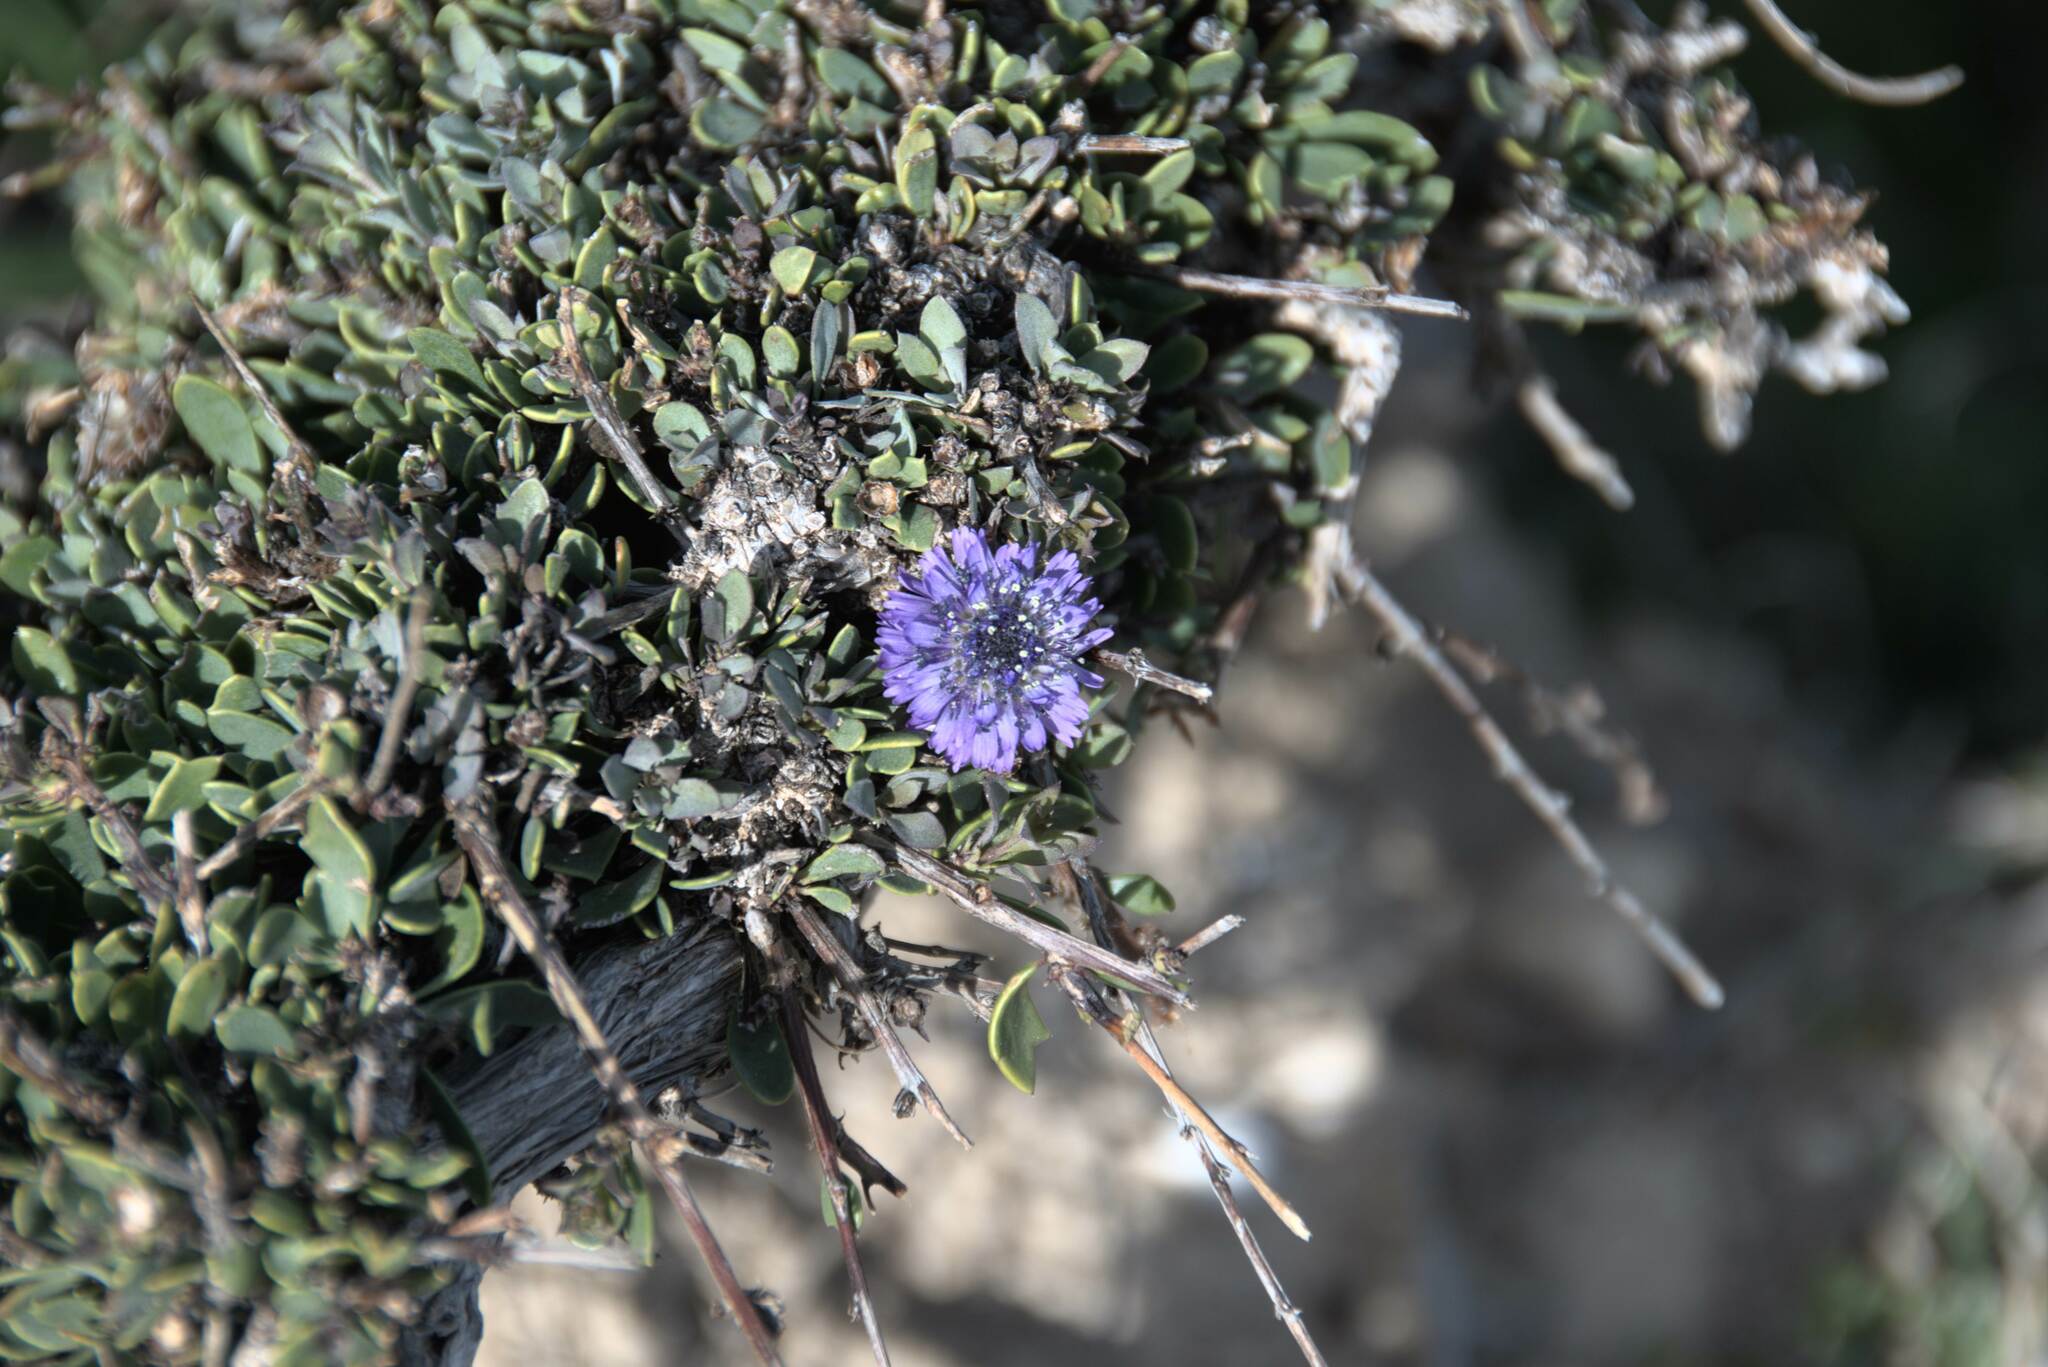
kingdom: Plantae
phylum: Tracheophyta
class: Magnoliopsida
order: Lamiales
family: Plantaginaceae
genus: Globularia
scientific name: Globularia alypum
